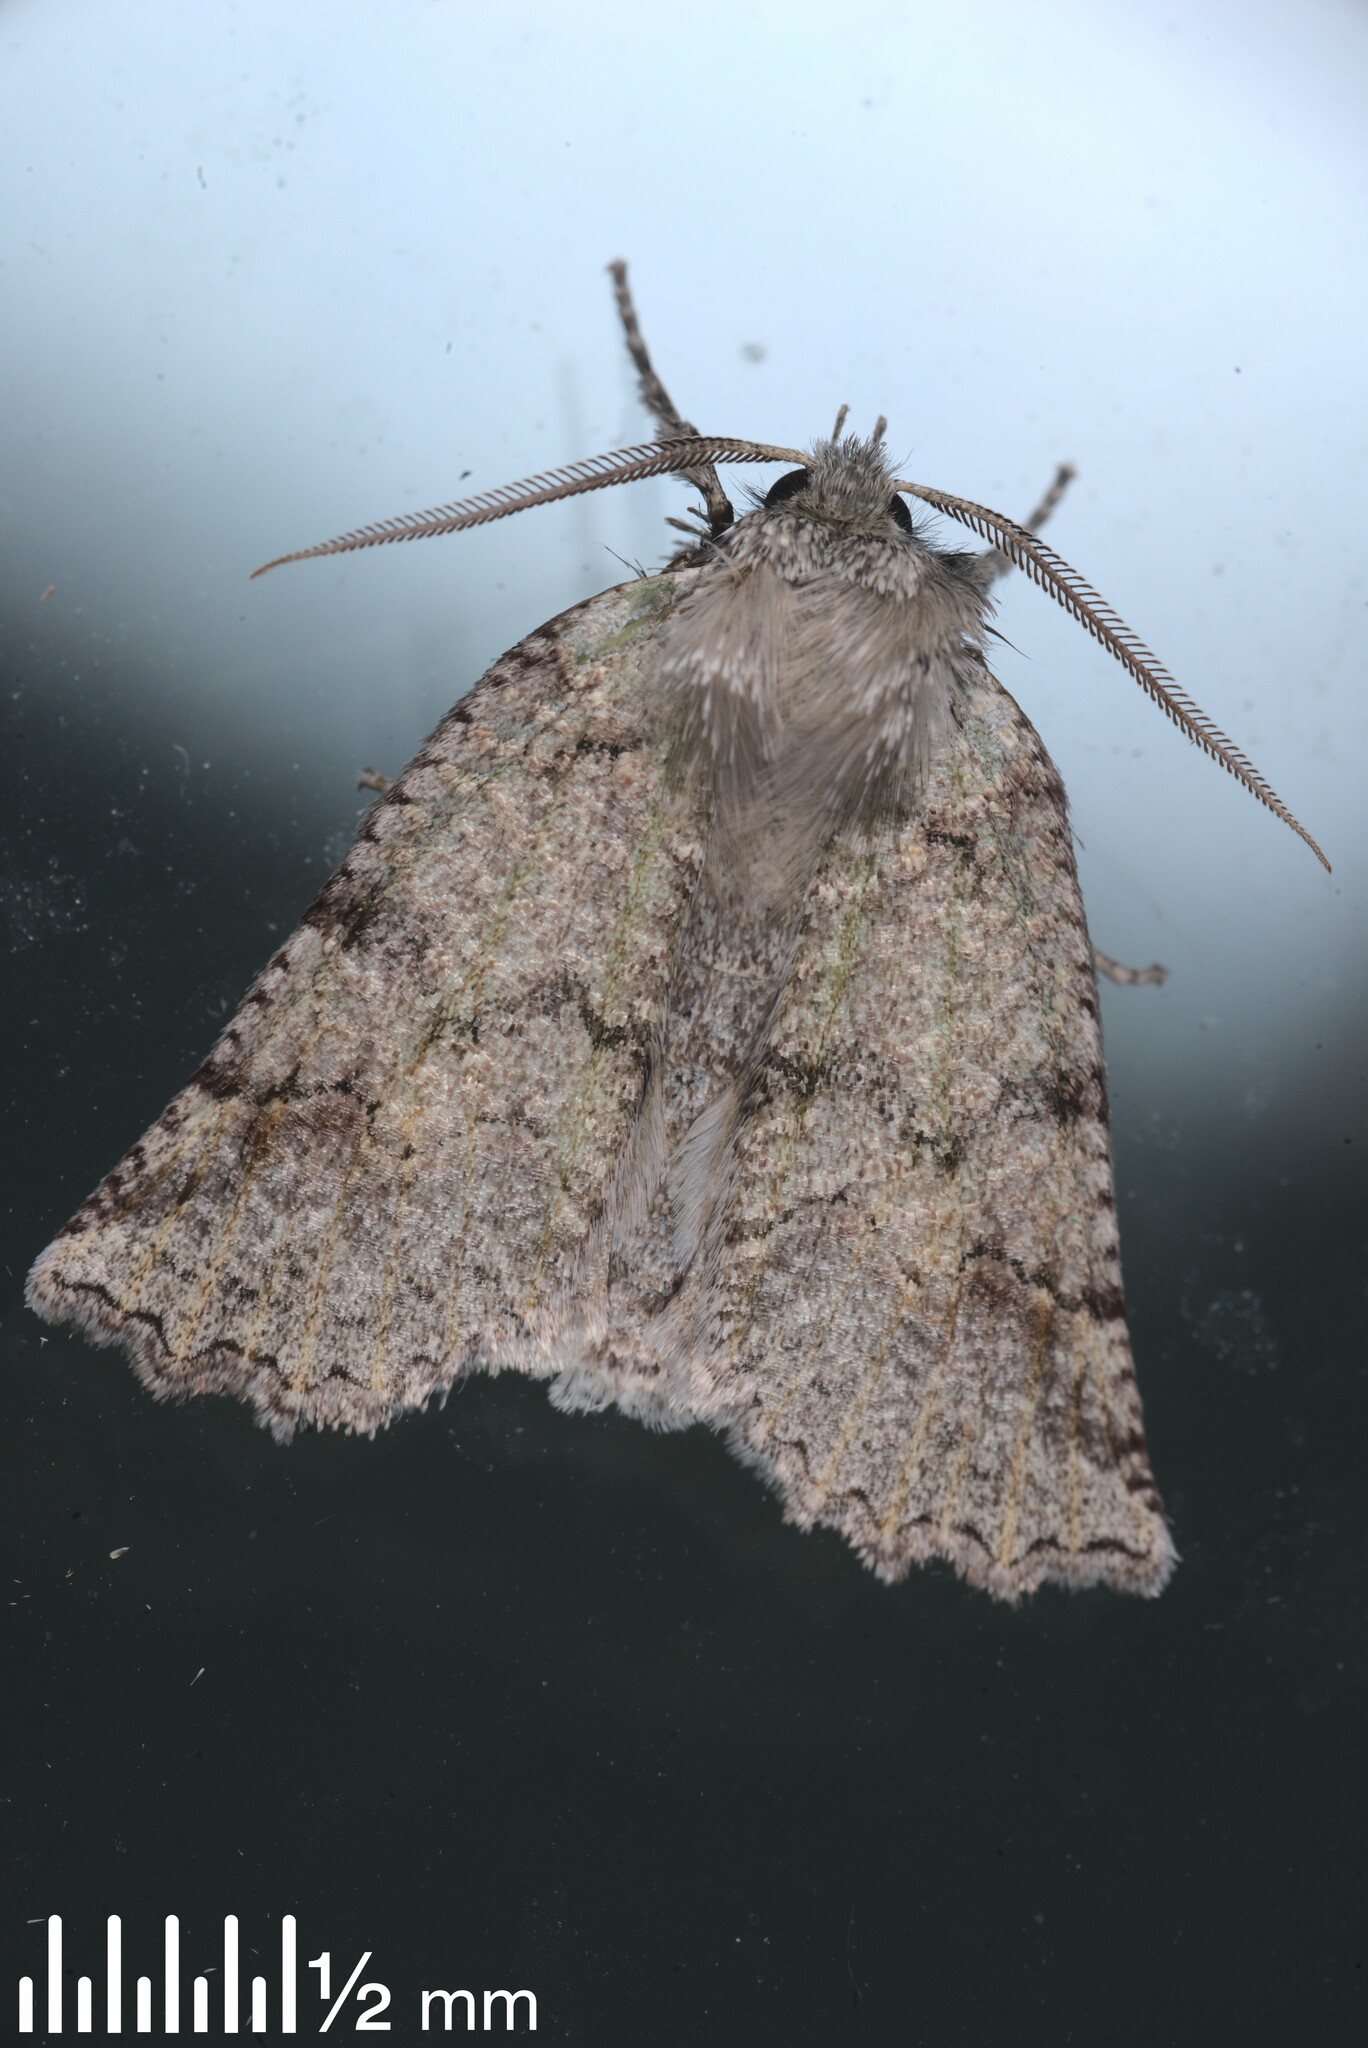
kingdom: Animalia
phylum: Arthropoda
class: Insecta
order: Lepidoptera
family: Geometridae
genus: Declana
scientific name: Declana floccosa
